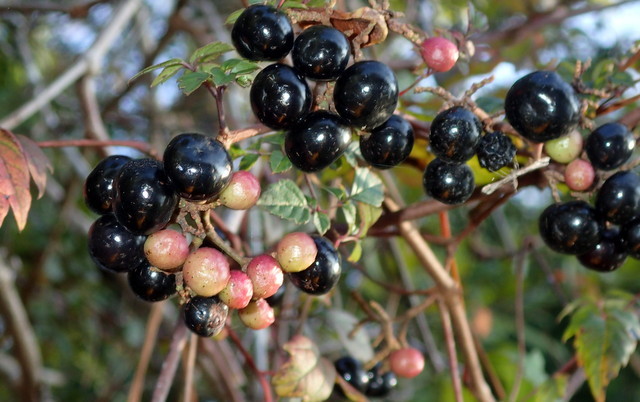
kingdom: Plantae
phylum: Tracheophyta
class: Magnoliopsida
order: Vitales
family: Vitaceae
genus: Nekemias
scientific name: Nekemias arborea
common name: Peppervine
